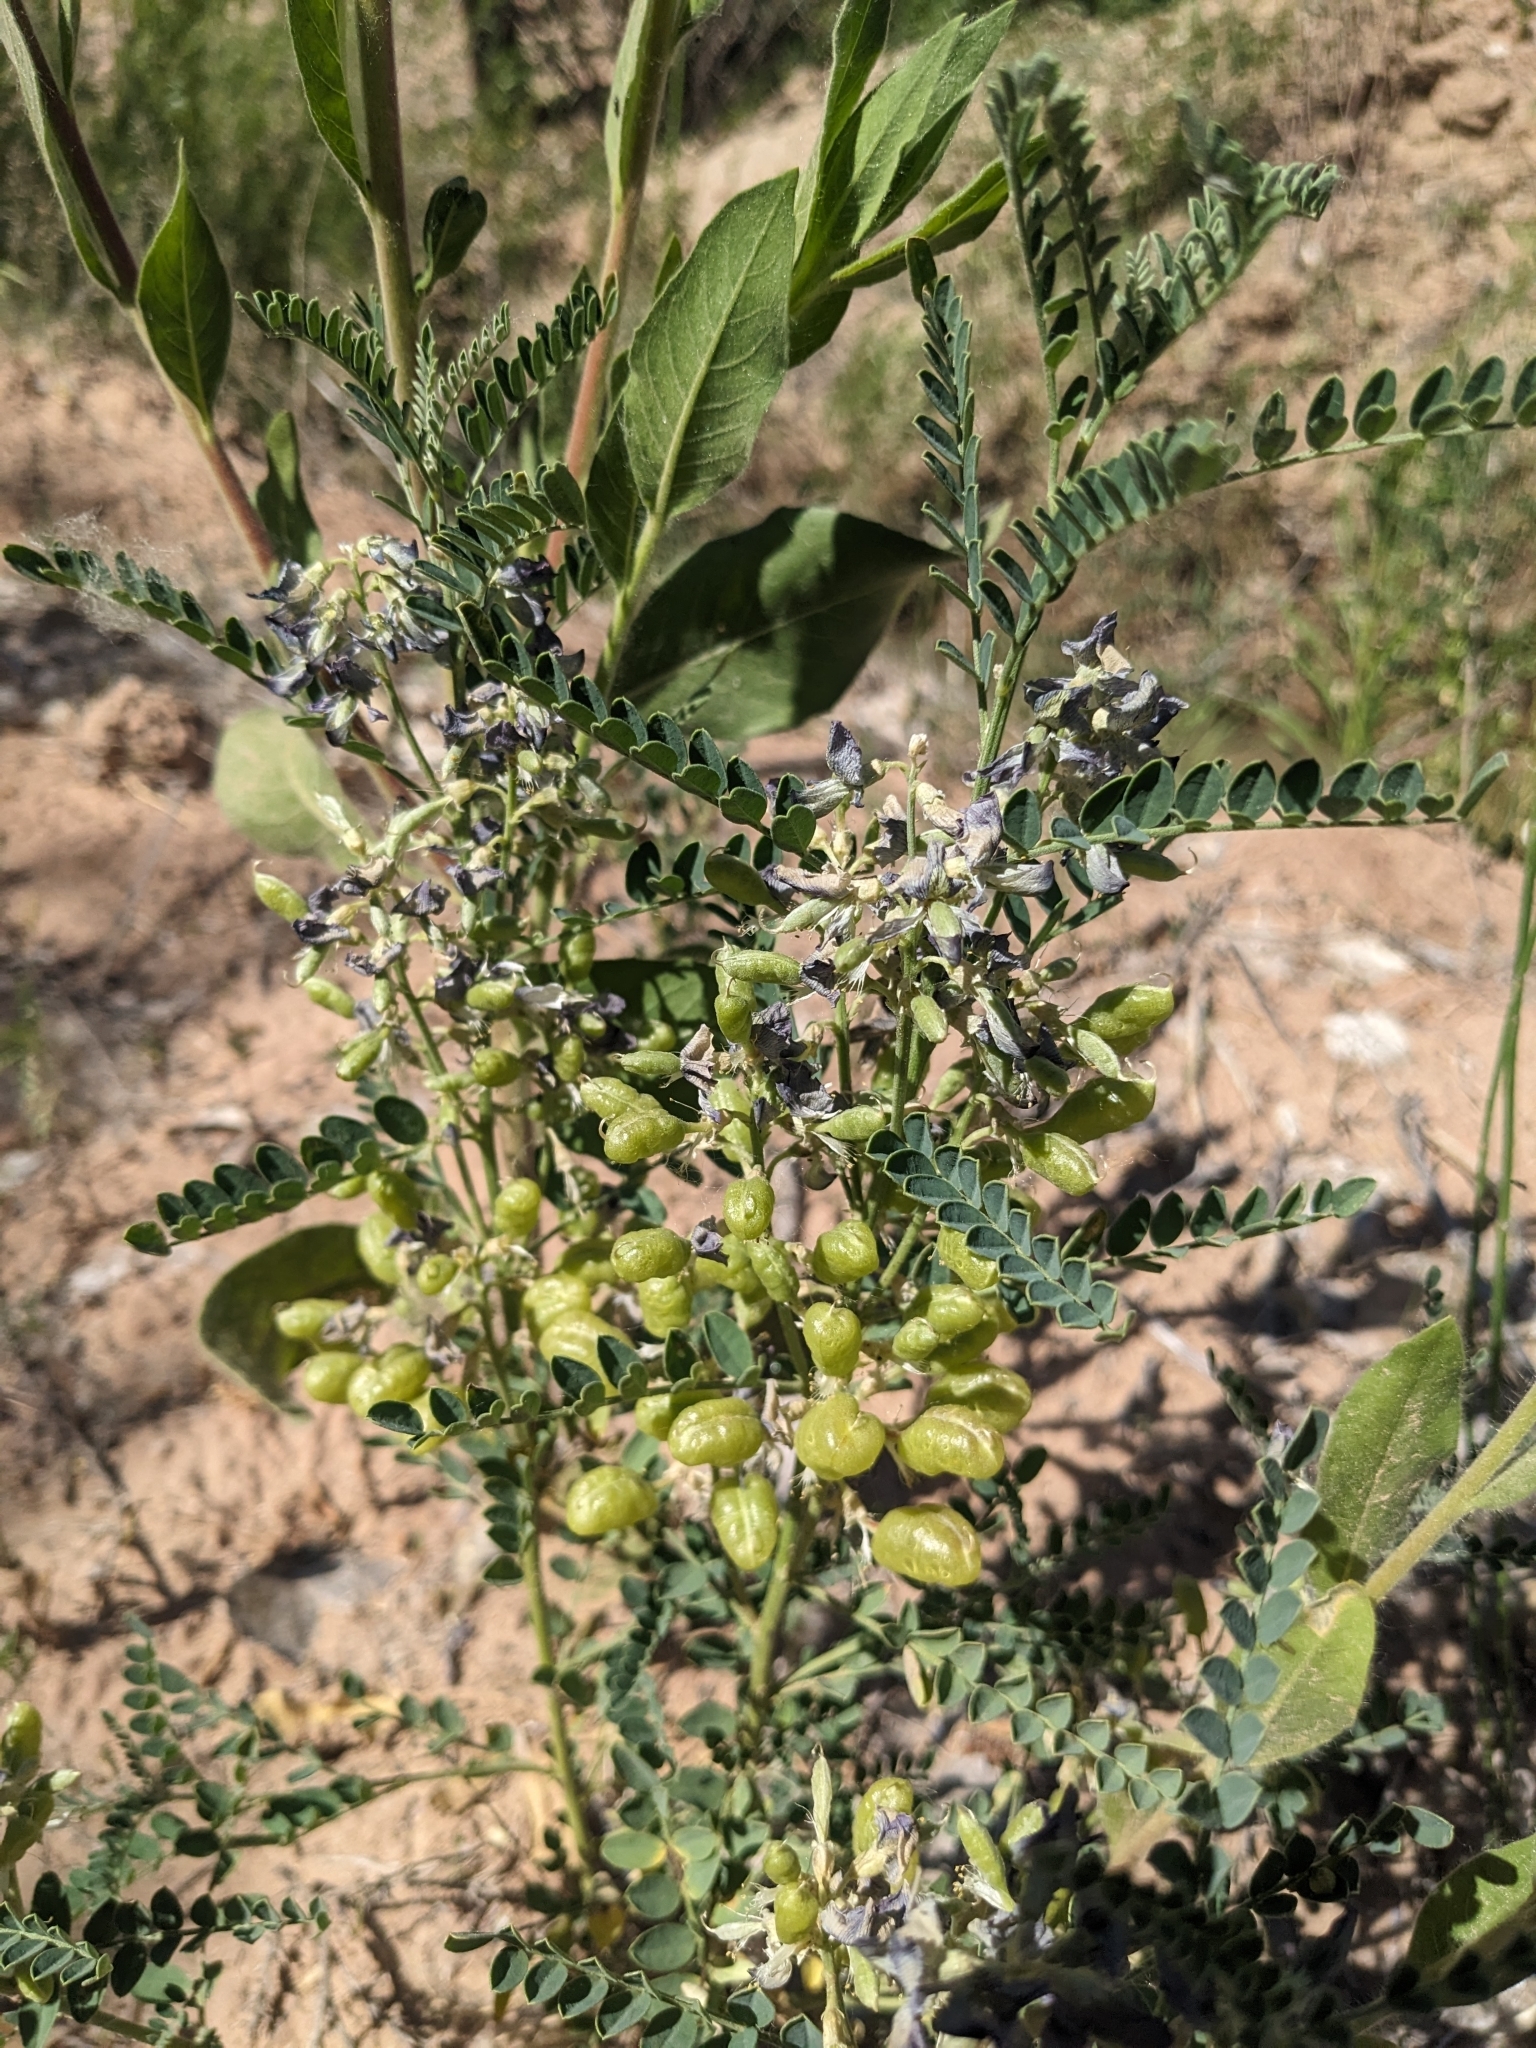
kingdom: Plantae
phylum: Tracheophyta
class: Magnoliopsida
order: Fabales
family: Fabaceae
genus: Sphaerophysa
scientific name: Sphaerophysa salsula
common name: Alkali swainsonpea
